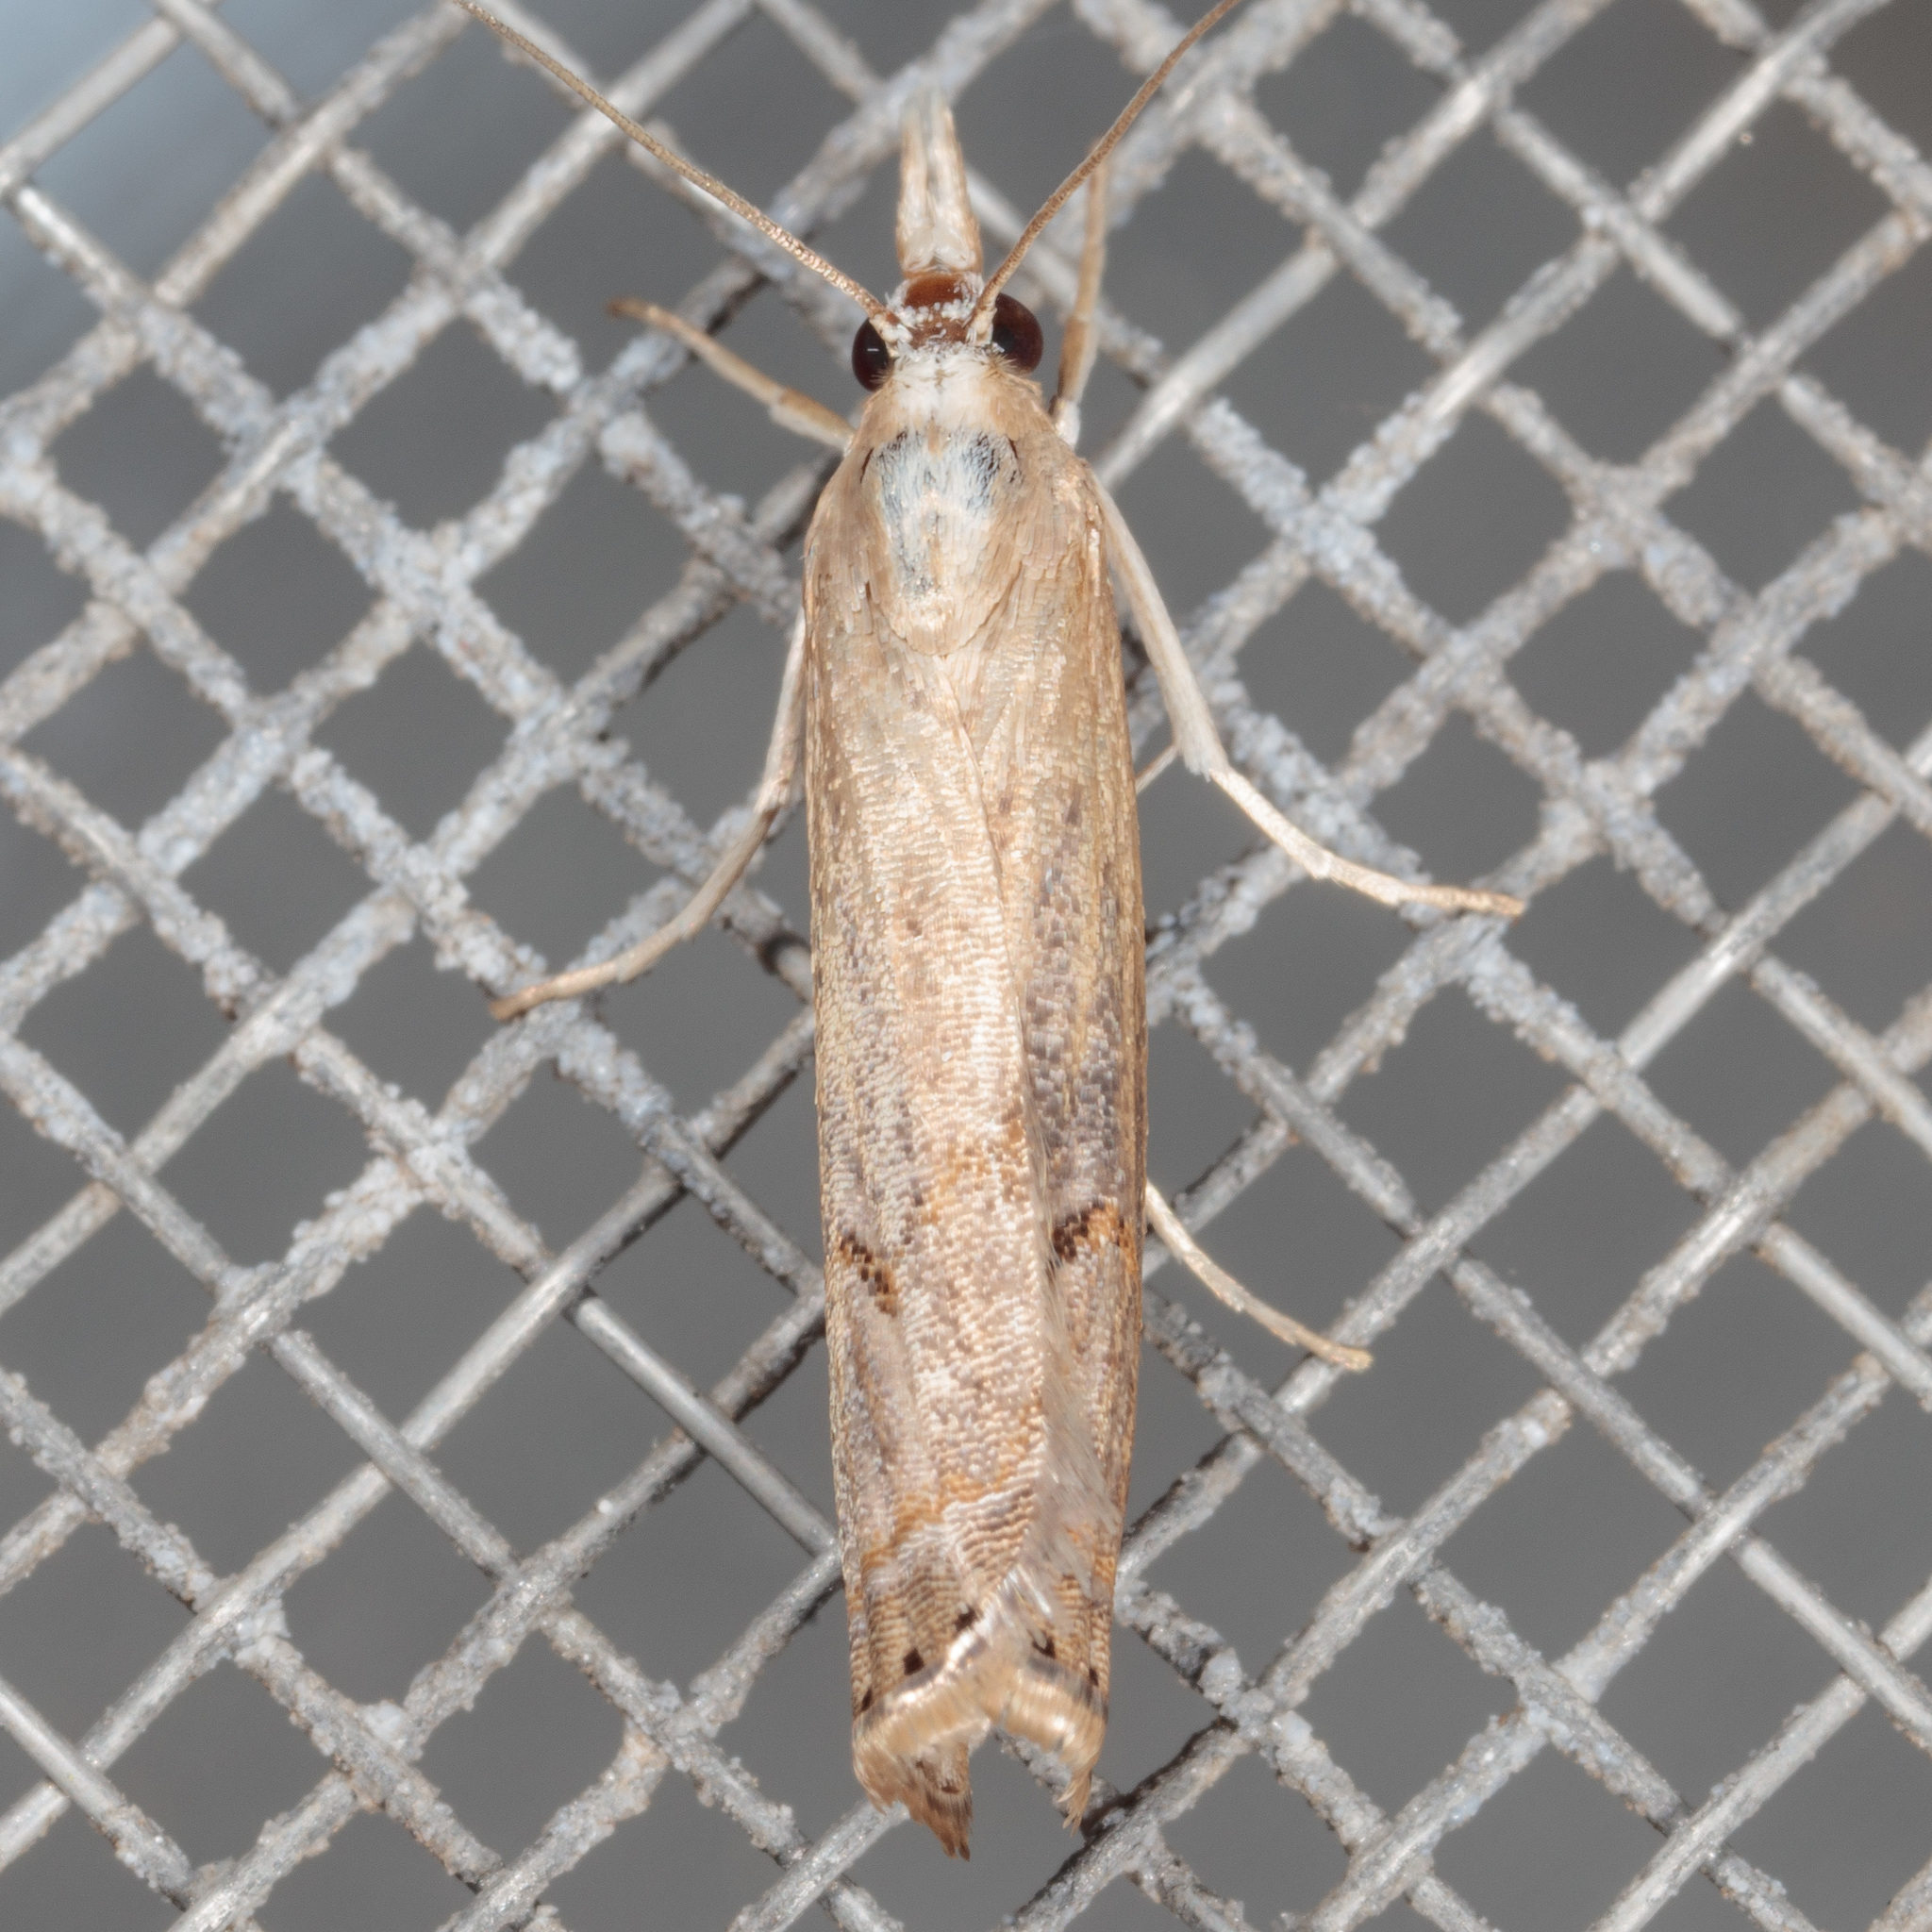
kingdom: Animalia
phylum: Arthropoda
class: Insecta
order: Lepidoptera
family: Crambidae
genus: Parapediasia
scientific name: Parapediasia teterellus
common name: Bluegrass webworm moth
